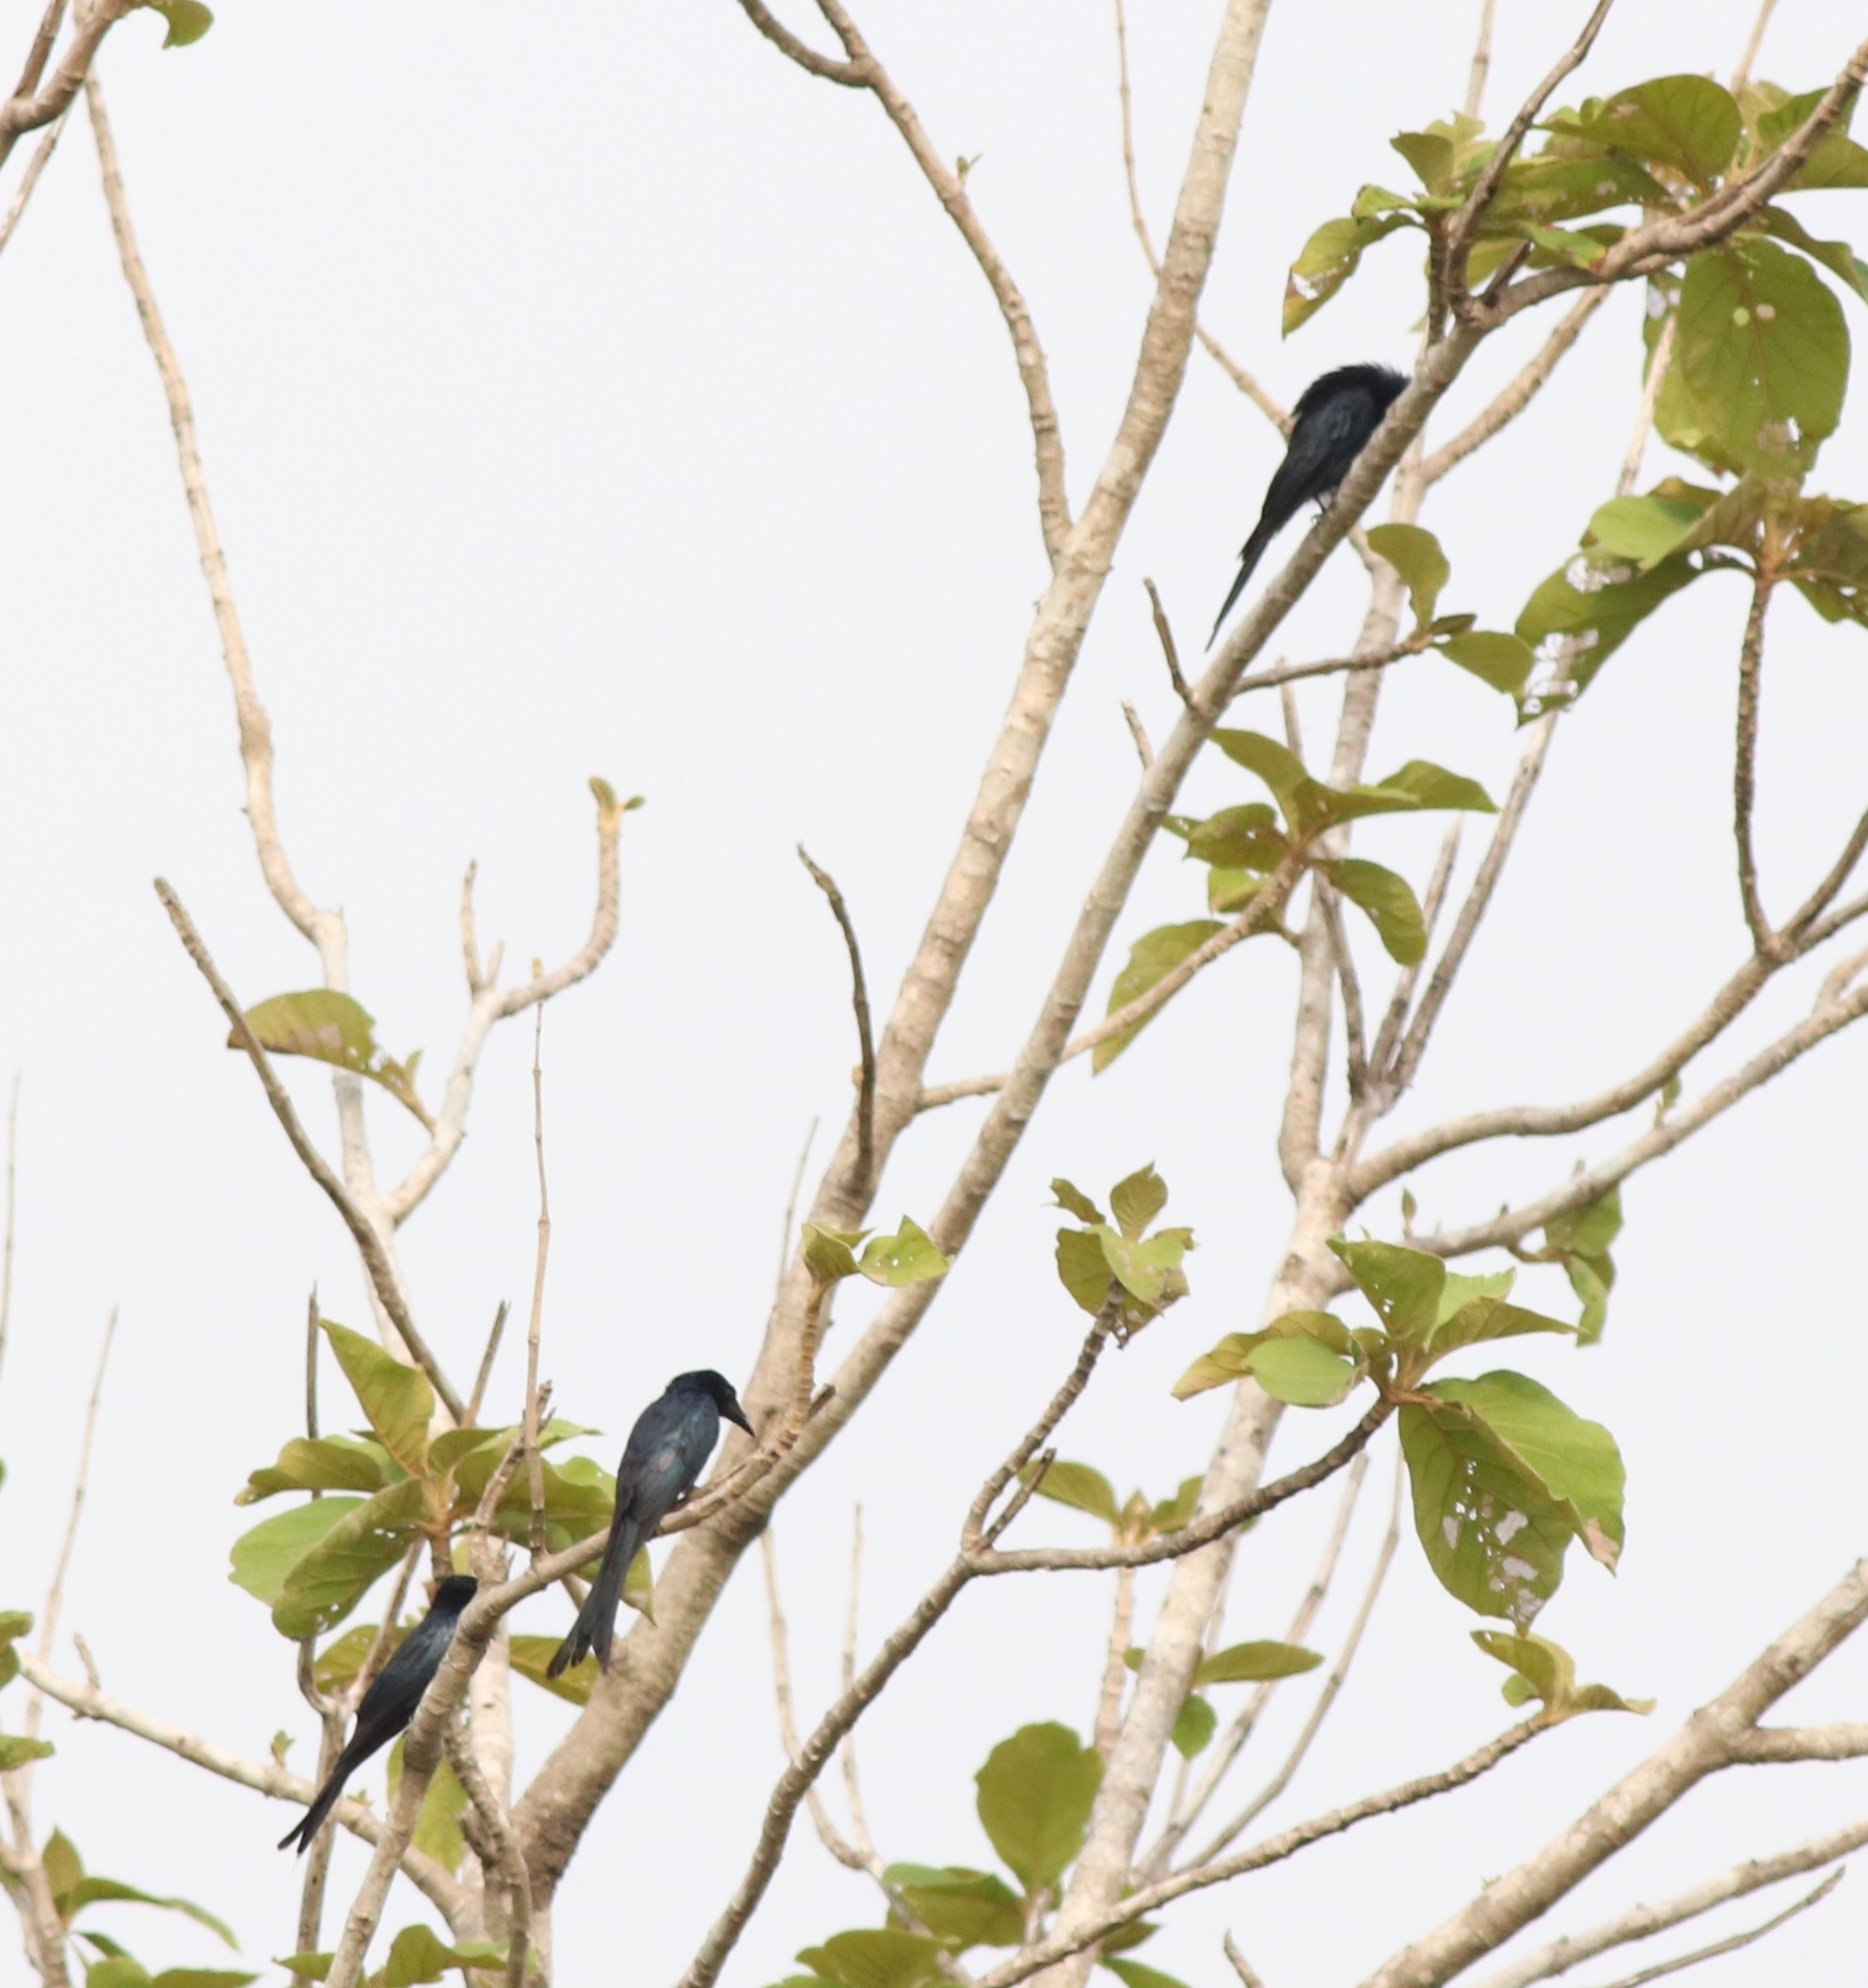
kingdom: Animalia
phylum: Chordata
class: Aves
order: Passeriformes
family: Dicruridae
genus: Dicrurus
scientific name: Dicrurus aeneus
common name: Bronzed drongo
